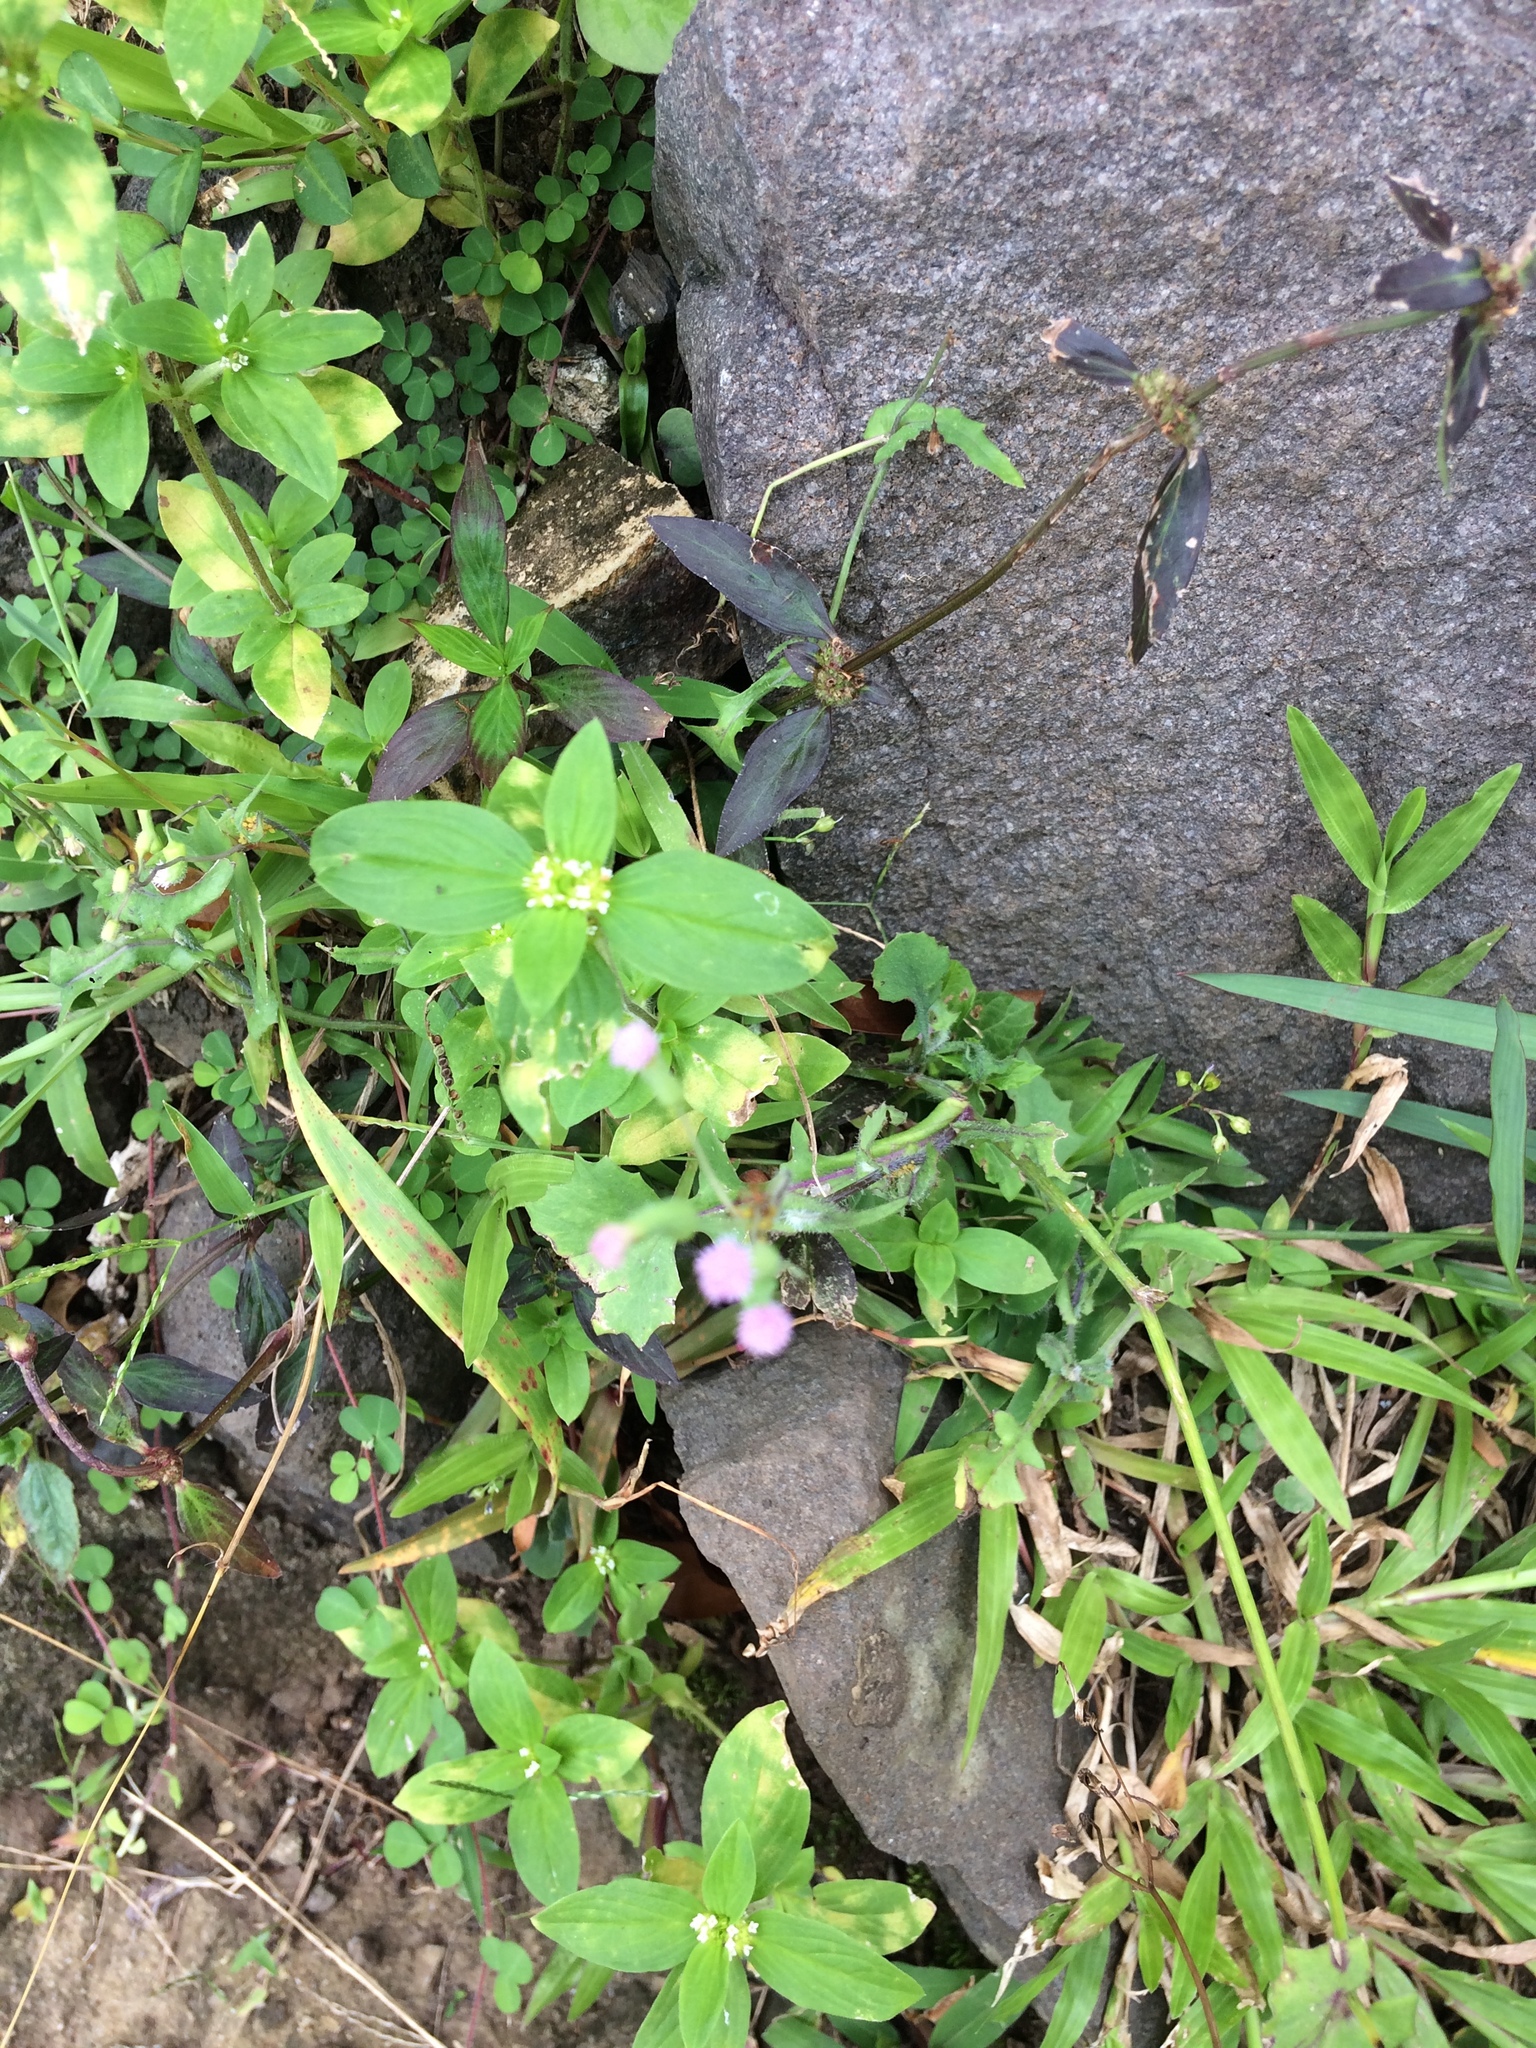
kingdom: Plantae
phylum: Tracheophyta
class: Magnoliopsida
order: Asterales
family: Asteraceae
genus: Emilia
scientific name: Emilia sonchifolia
